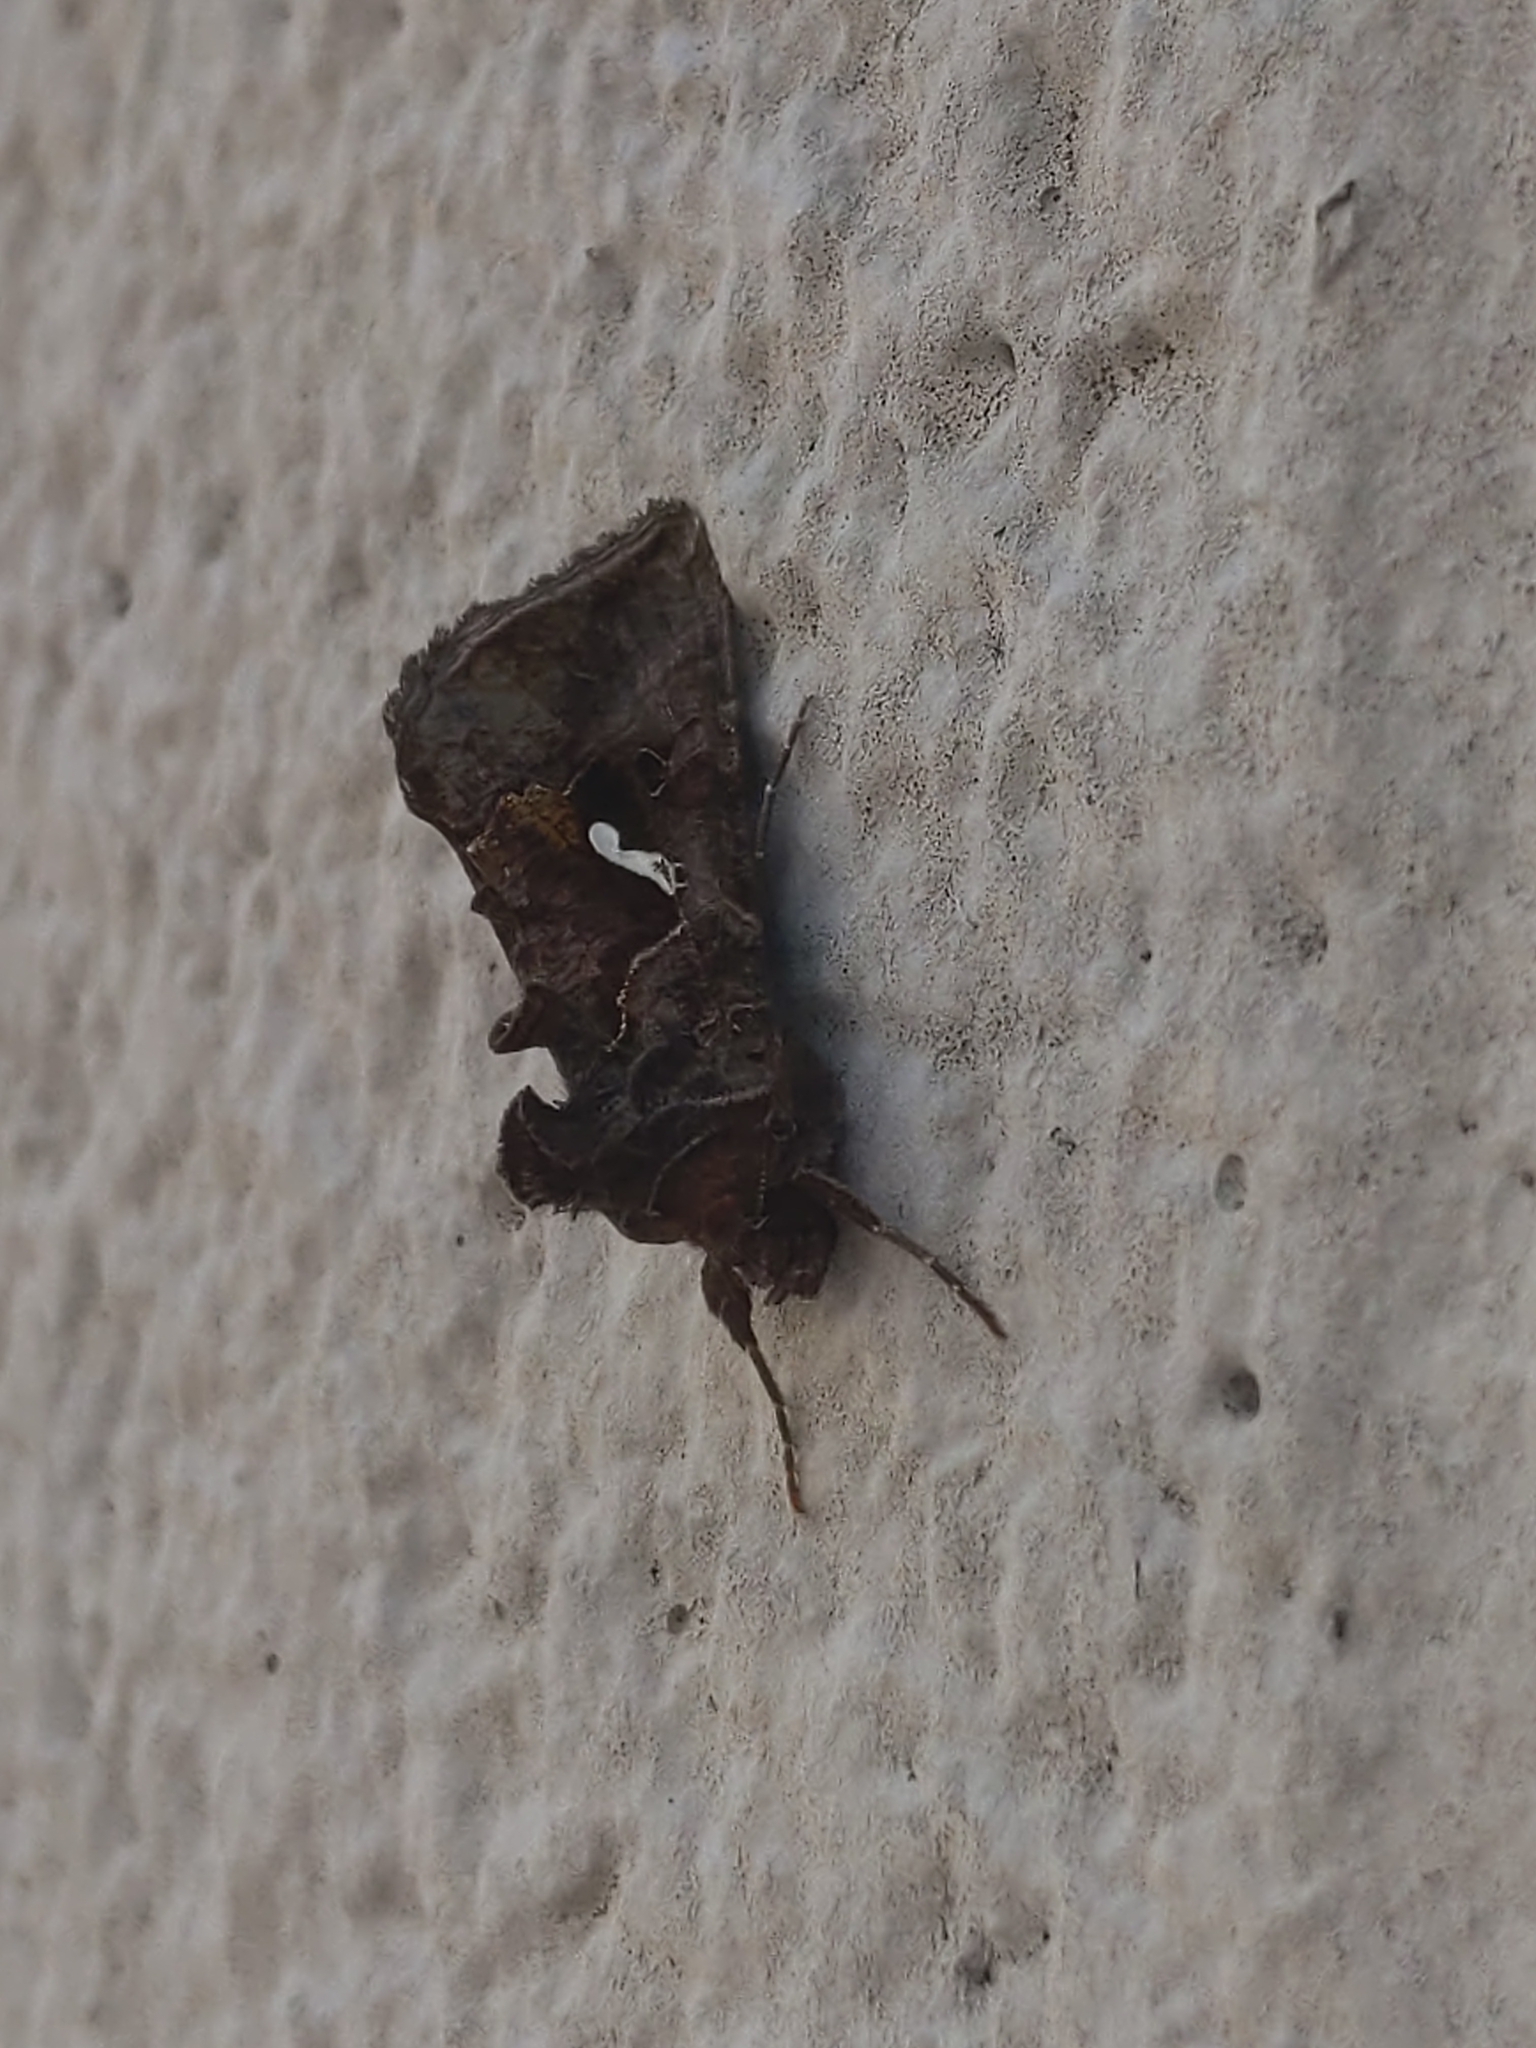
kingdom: Animalia
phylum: Arthropoda
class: Insecta
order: Lepidoptera
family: Noctuidae
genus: Autographa
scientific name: Autographa precationis
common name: Common looper moth
